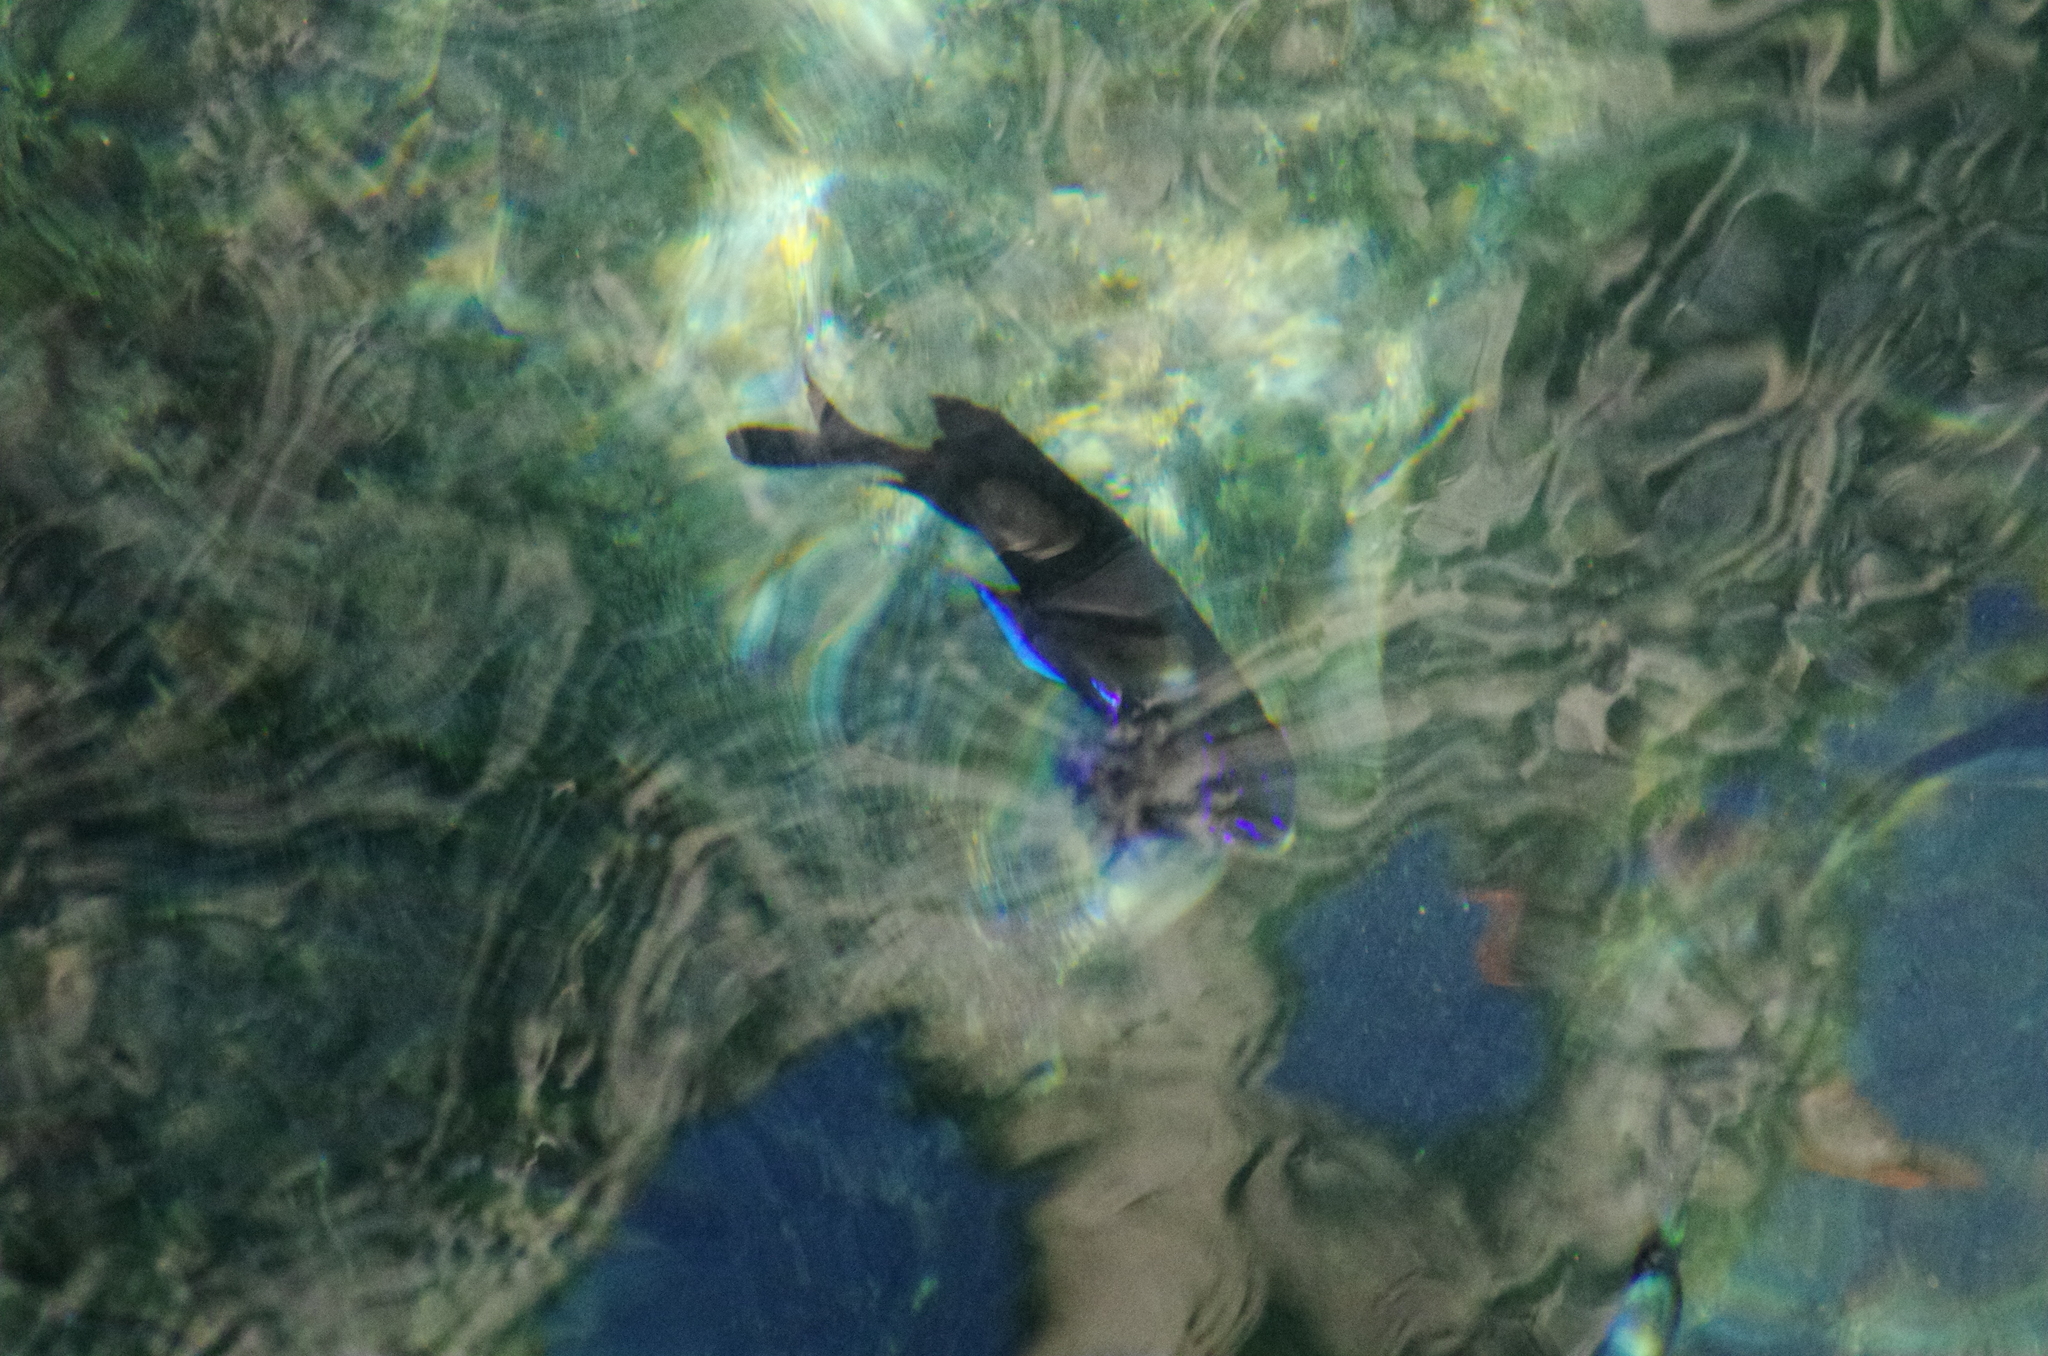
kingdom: Animalia
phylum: Chordata
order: Perciformes
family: Pomacentridae
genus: Similiparma
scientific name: Similiparma lurida
